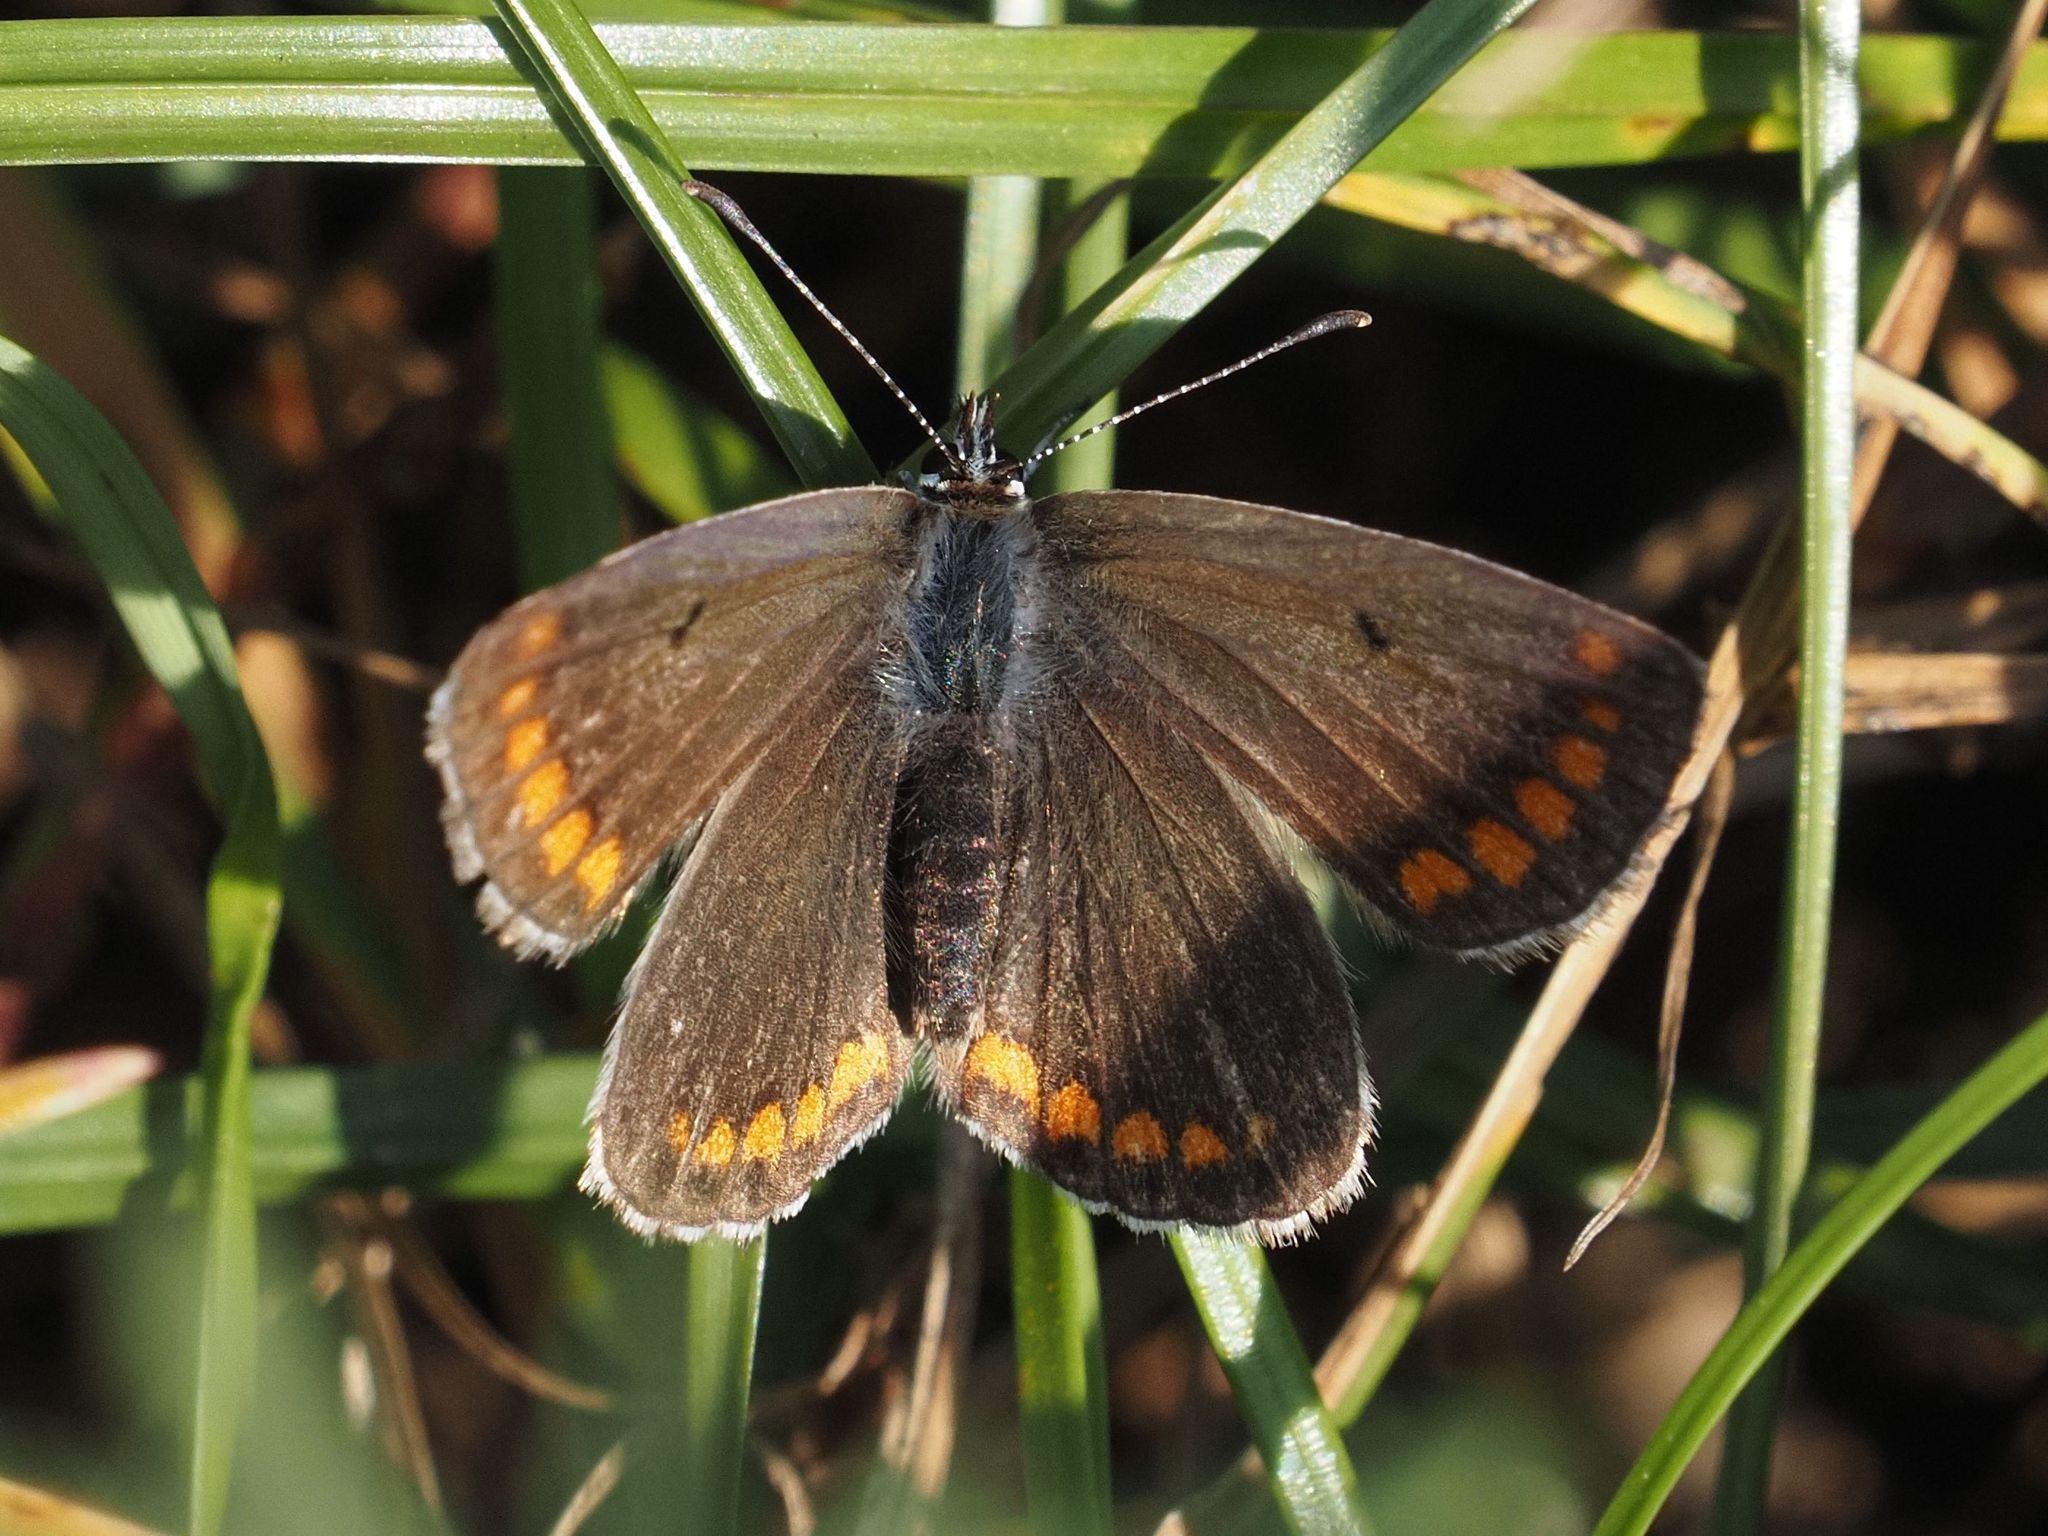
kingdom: Animalia
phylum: Arthropoda
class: Insecta
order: Lepidoptera
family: Lycaenidae
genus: Aricia
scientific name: Aricia agestis
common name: Brown argus
